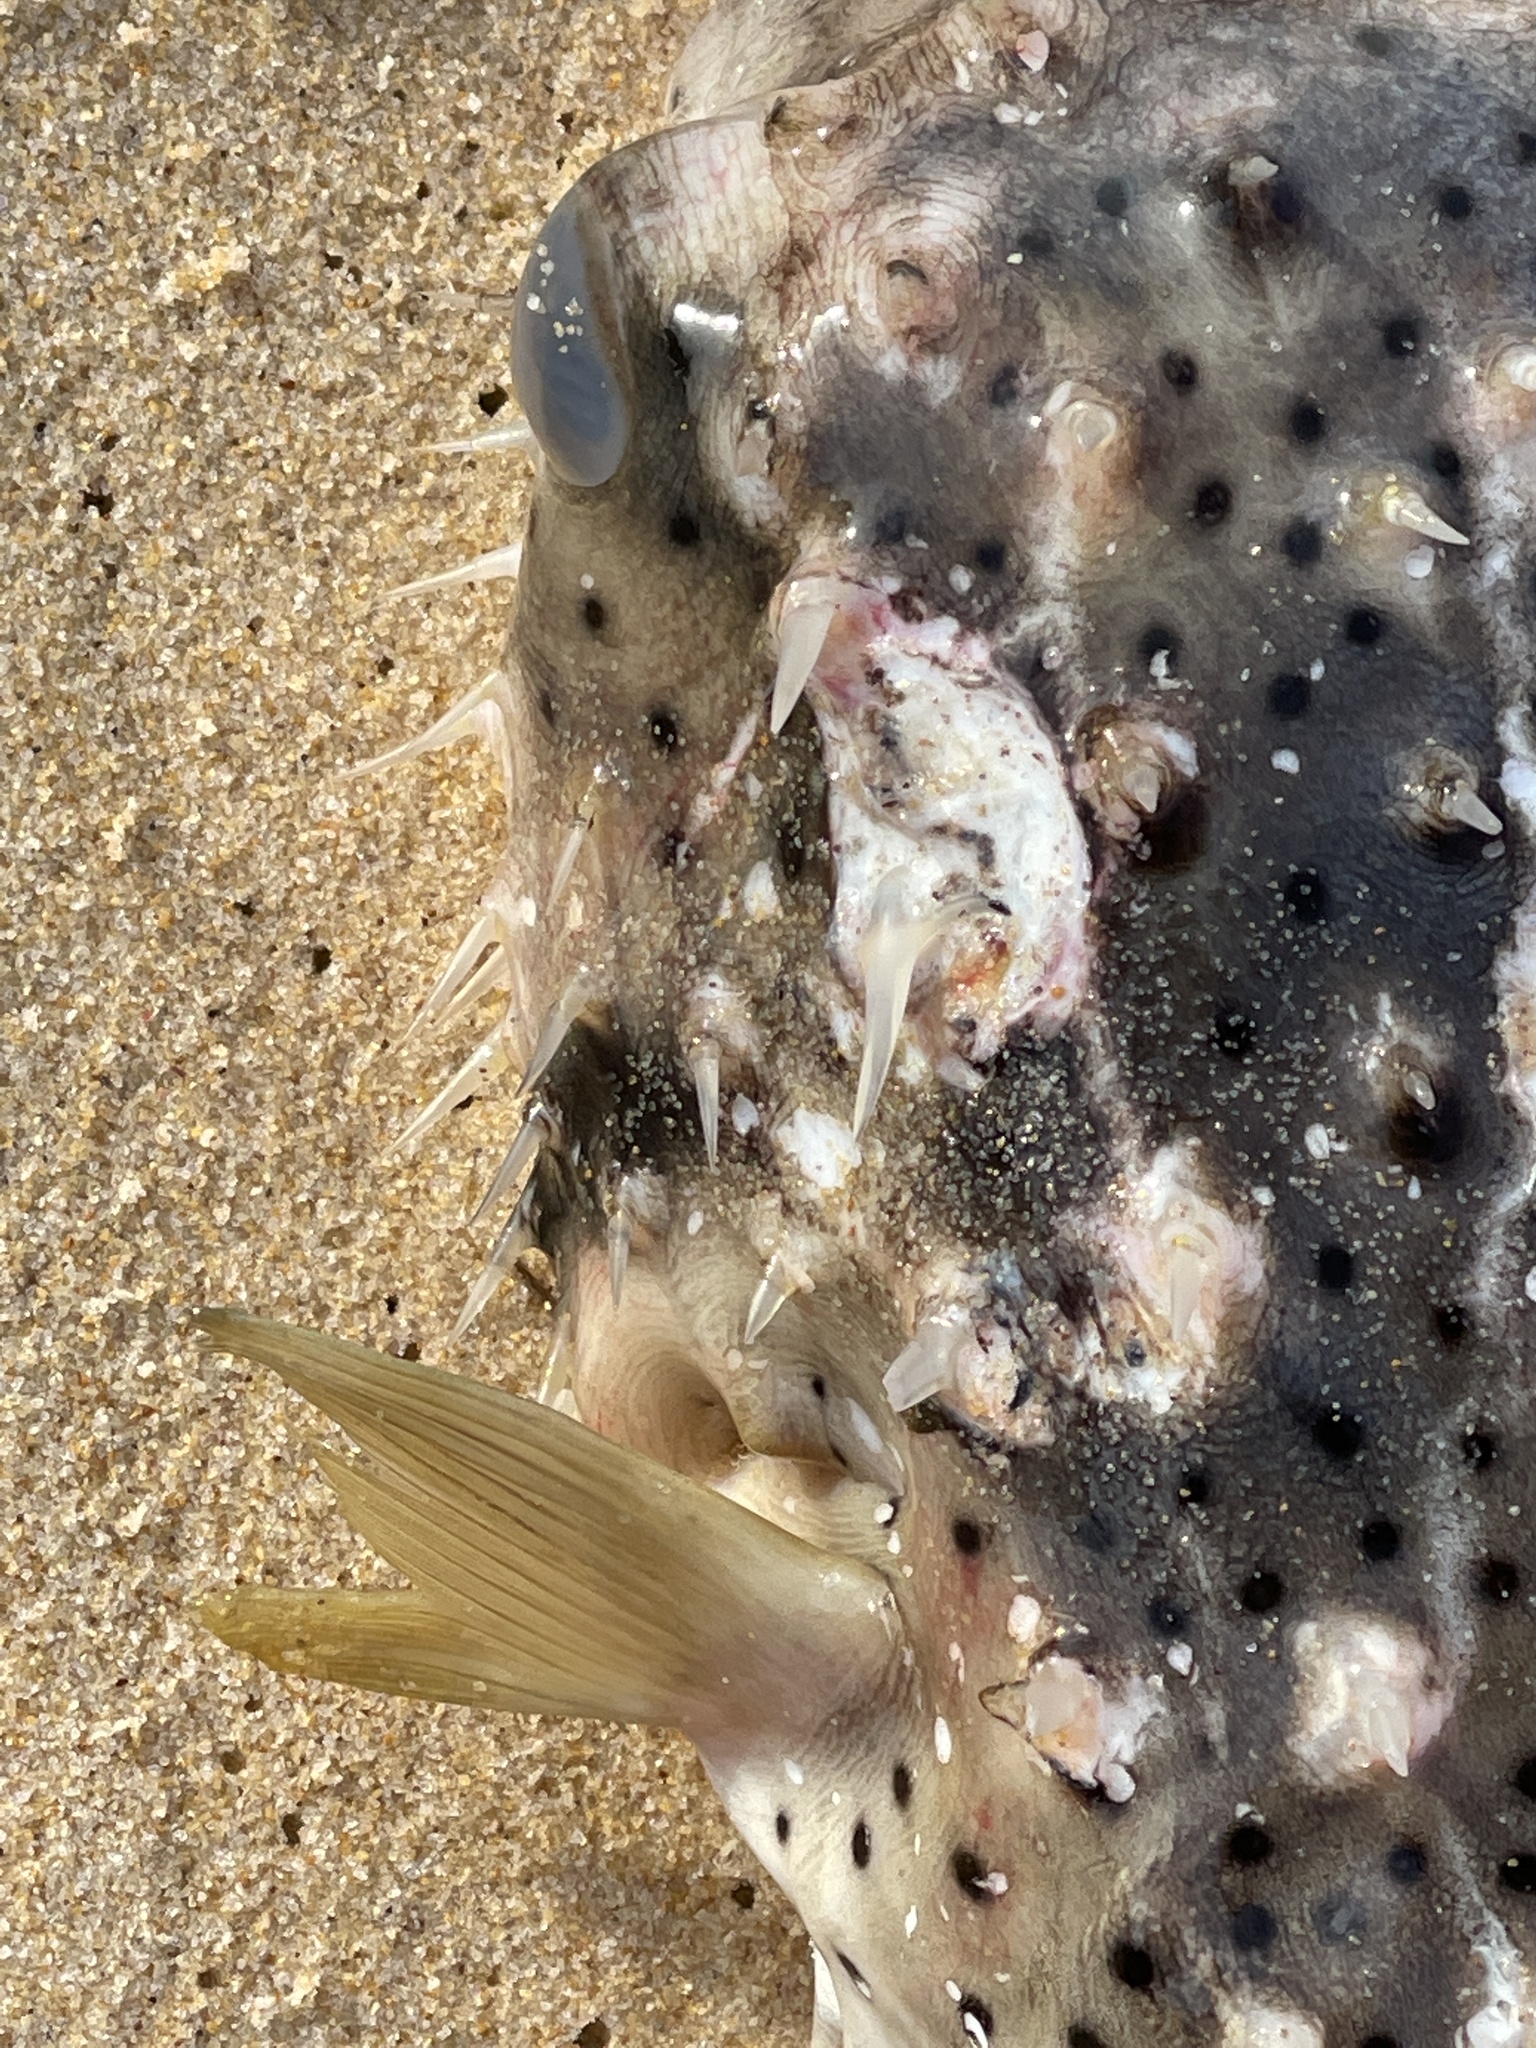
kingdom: Animalia
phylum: Chordata
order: Tetraodontiformes
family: Diodontidae
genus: Dicotylichthys
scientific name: Dicotylichthys punctulatus
